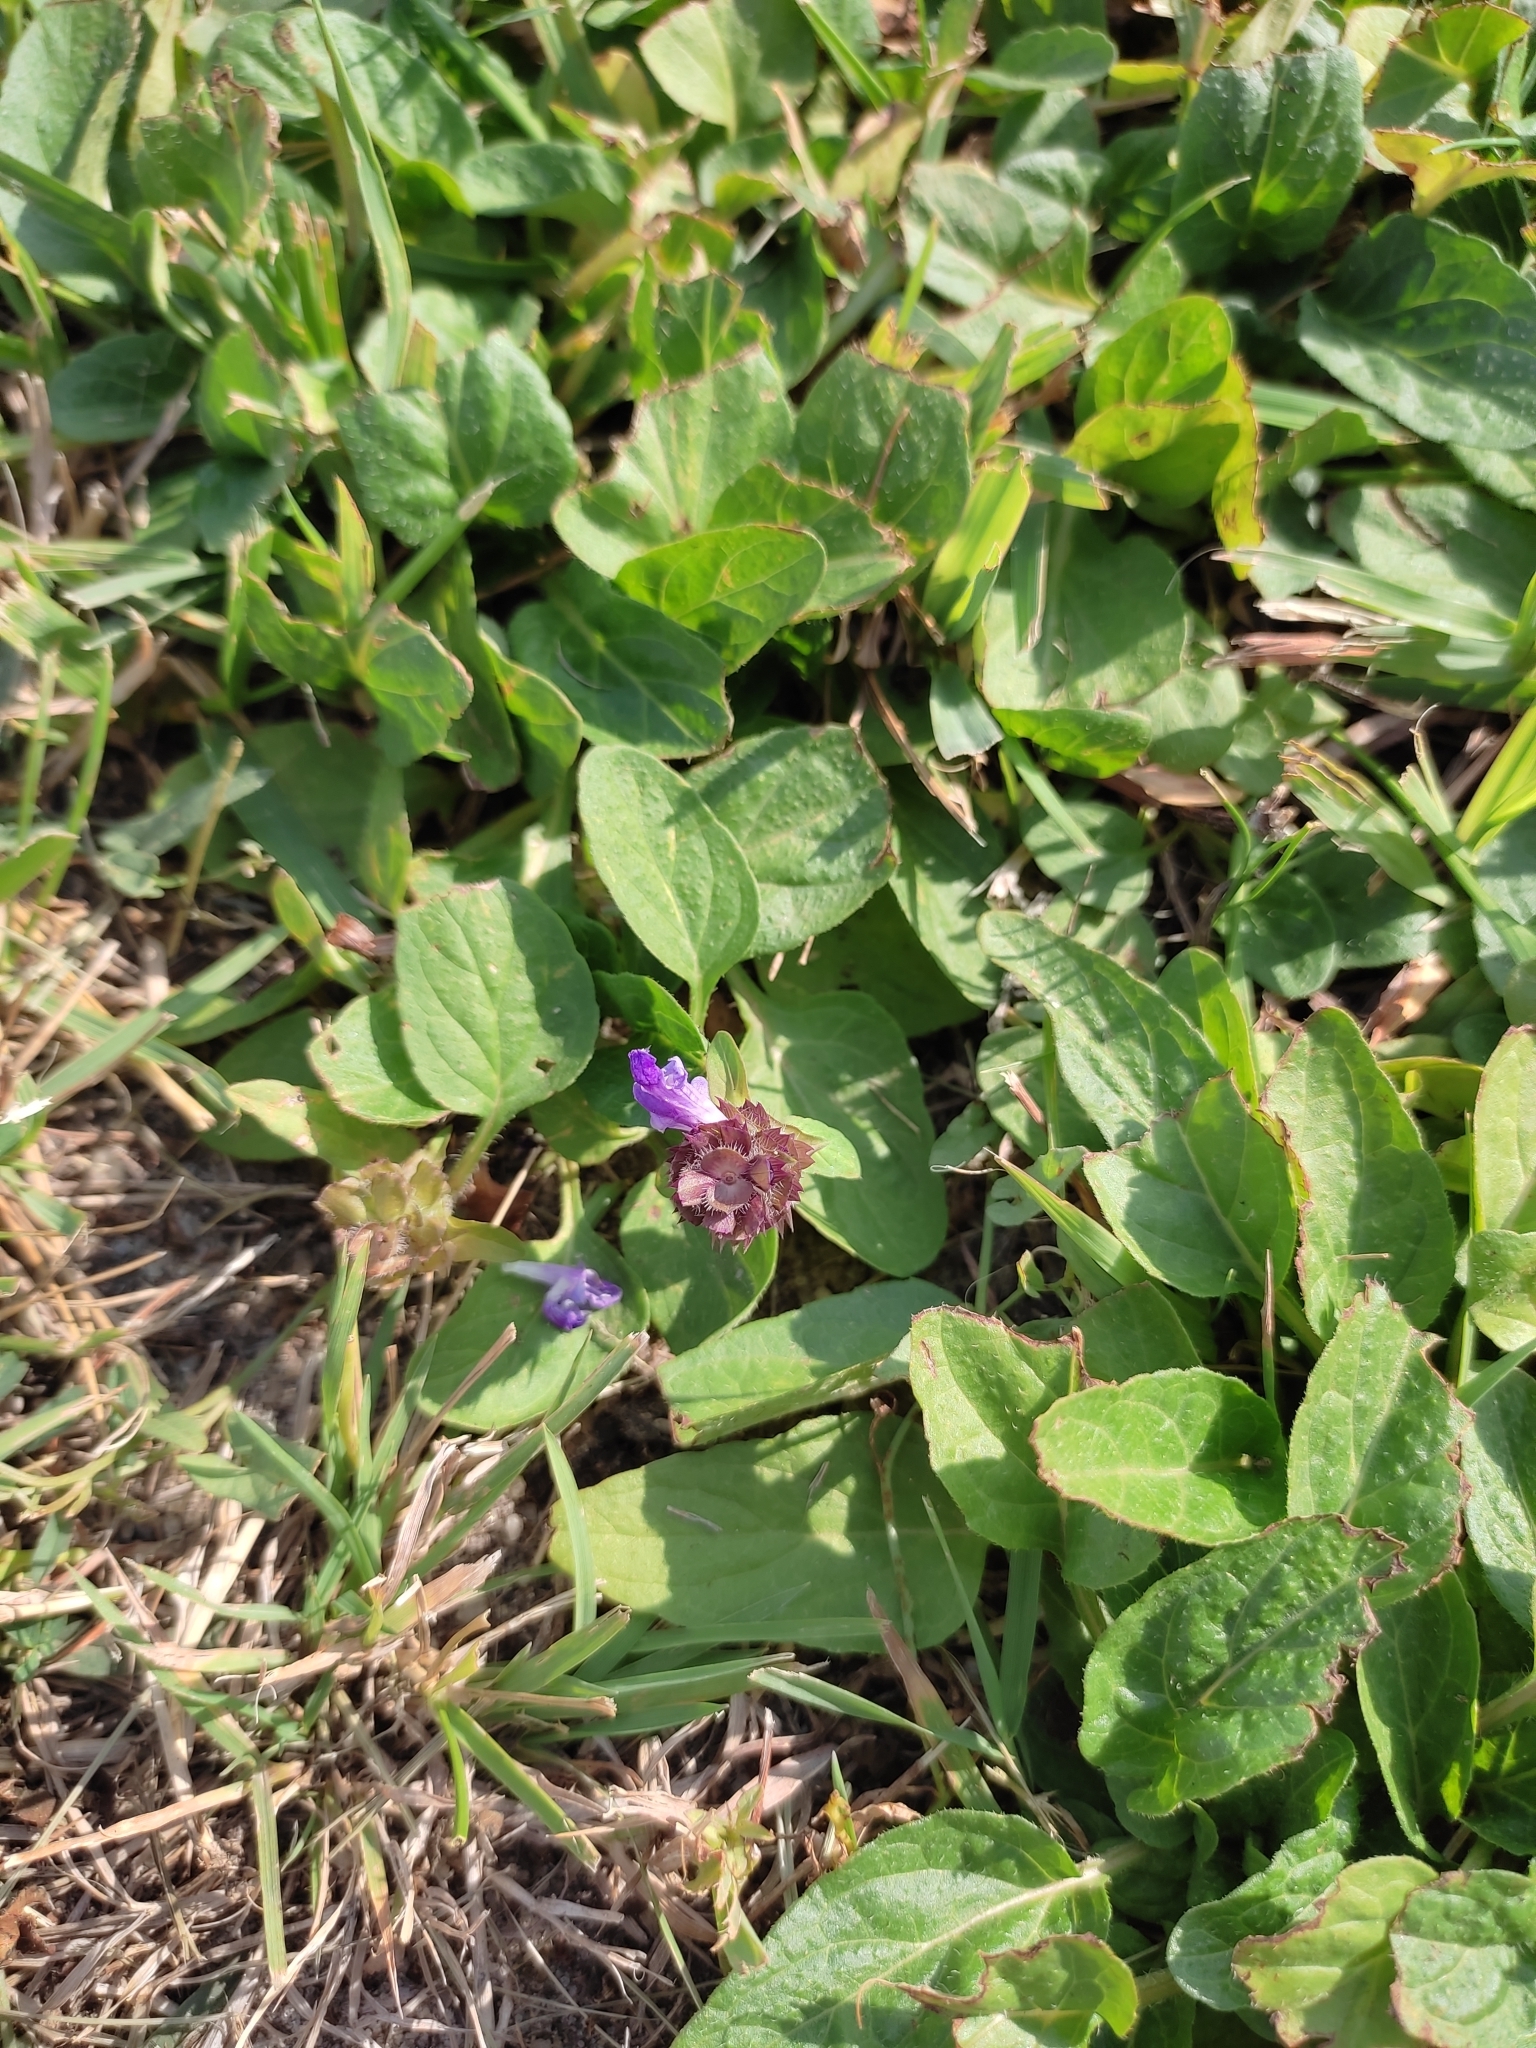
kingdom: Plantae
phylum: Tracheophyta
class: Magnoliopsida
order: Lamiales
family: Lamiaceae
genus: Prunella
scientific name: Prunella vulgaris
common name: Heal-all
